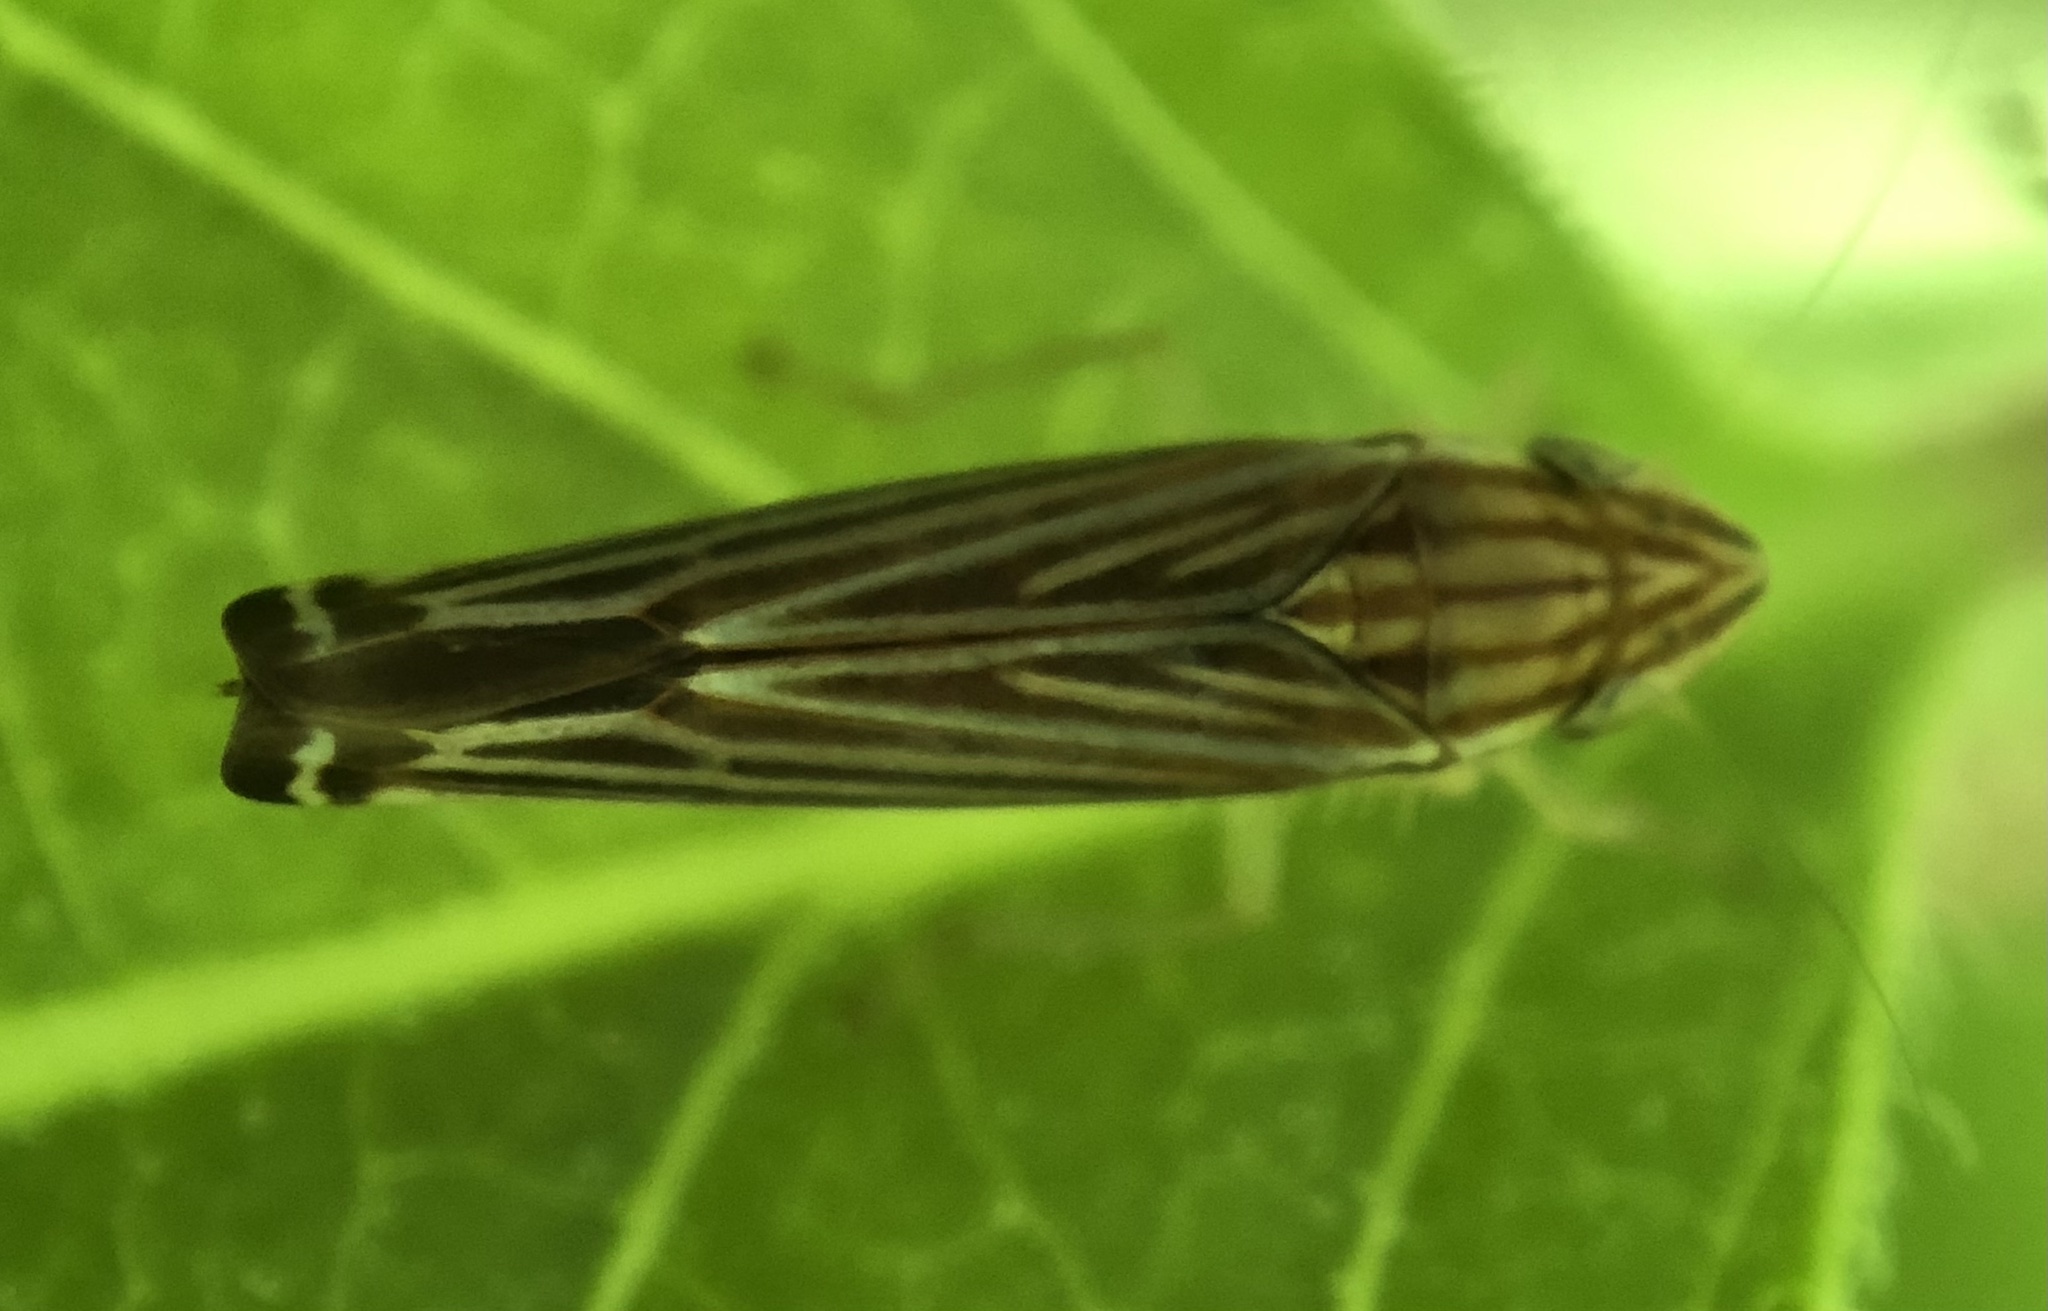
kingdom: Animalia
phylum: Arthropoda
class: Insecta
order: Hemiptera
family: Cicadellidae
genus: Sibovia
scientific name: Sibovia occatoria
